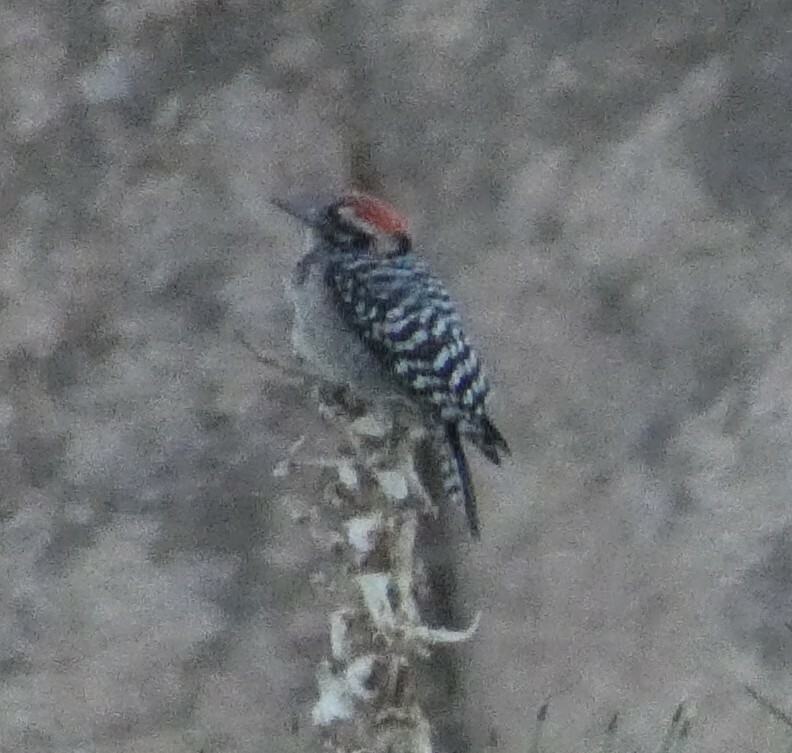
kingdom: Animalia
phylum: Chordata
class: Aves
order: Piciformes
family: Picidae
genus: Dryobates
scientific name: Dryobates scalaris
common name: Ladder-backed woodpecker
